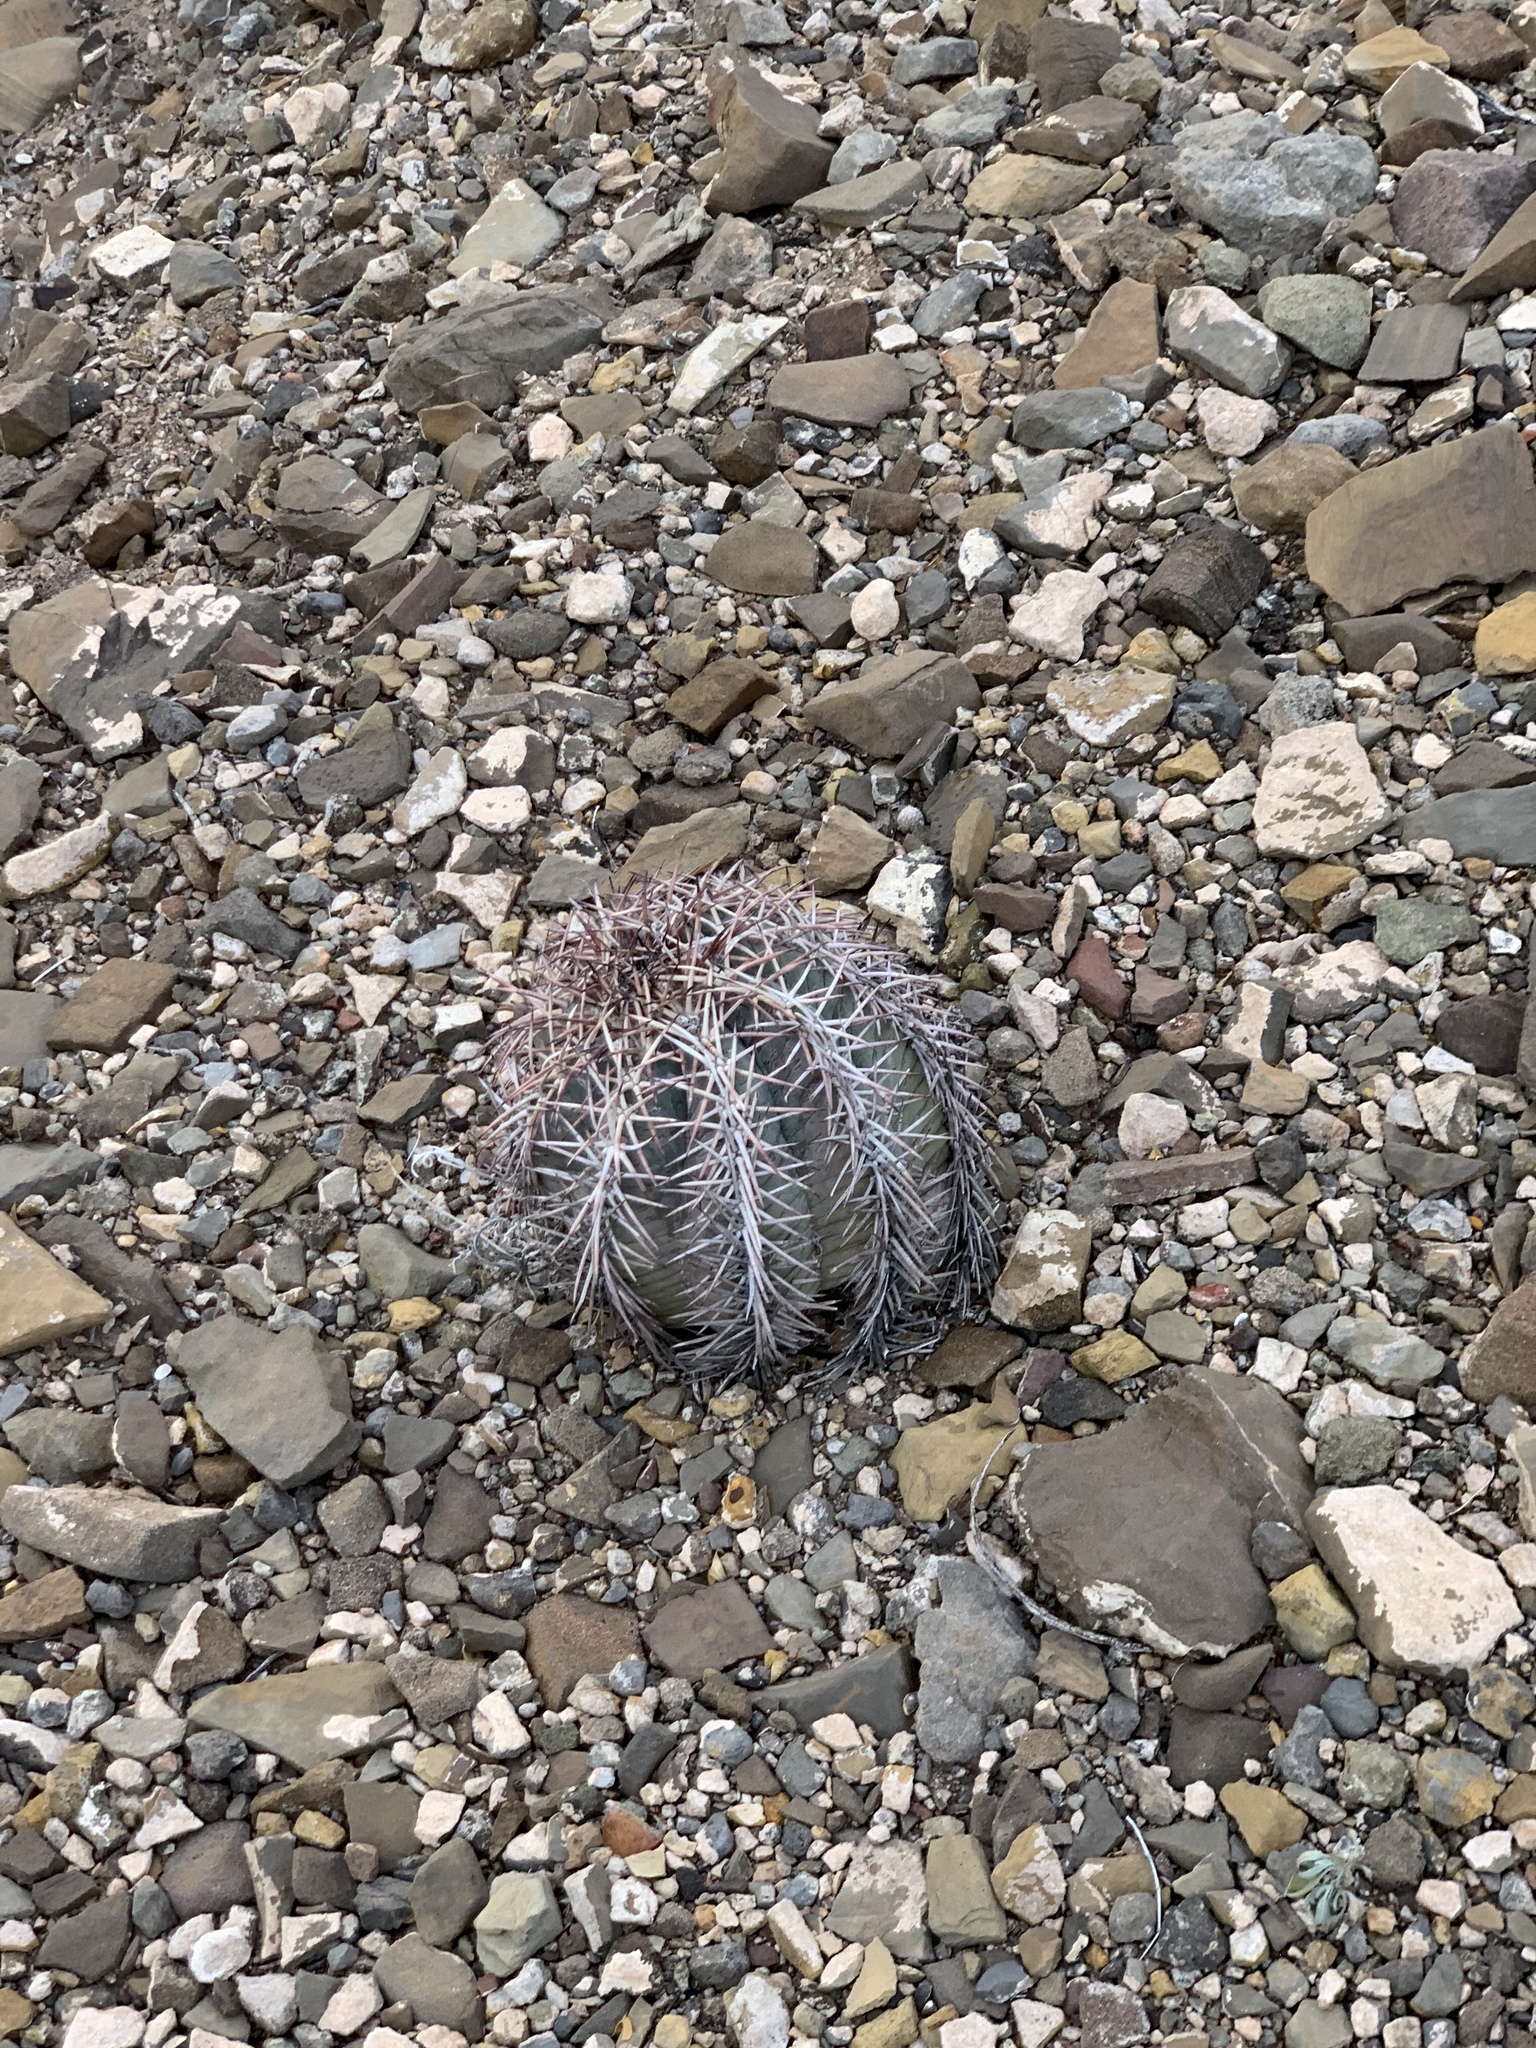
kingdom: Plantae
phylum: Tracheophyta
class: Magnoliopsida
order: Caryophyllales
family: Cactaceae
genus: Echinocactus
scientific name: Echinocactus horizonthalonius
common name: Devilshead
